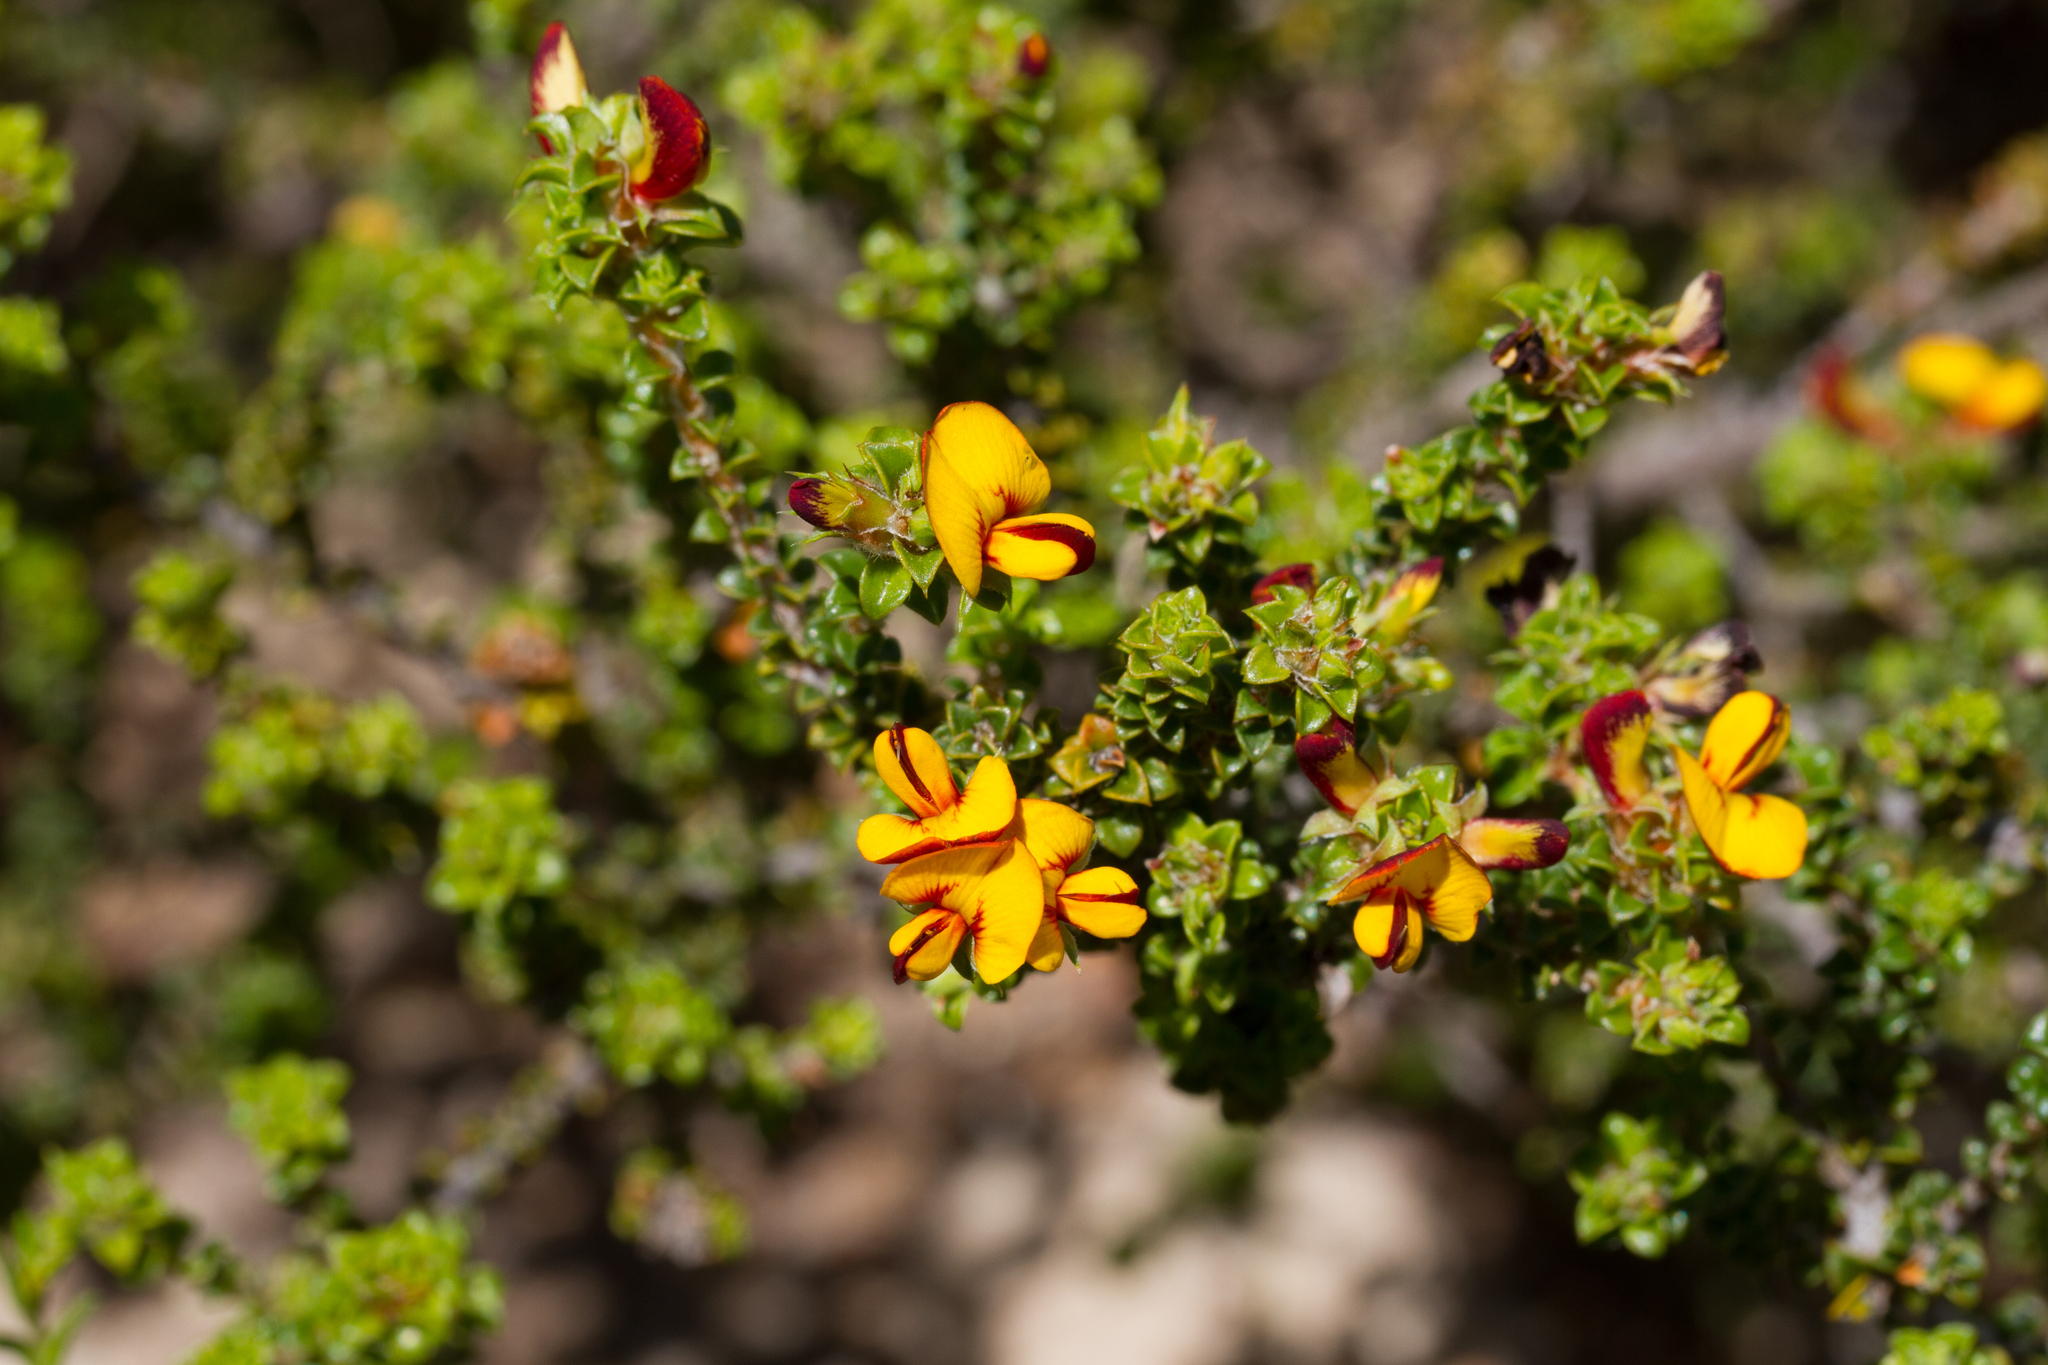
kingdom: Plantae
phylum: Tracheophyta
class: Magnoliopsida
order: Fabales
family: Fabaceae
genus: Pultenaea
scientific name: Pultenaea densifolia
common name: Dense-leaf bush-pea
